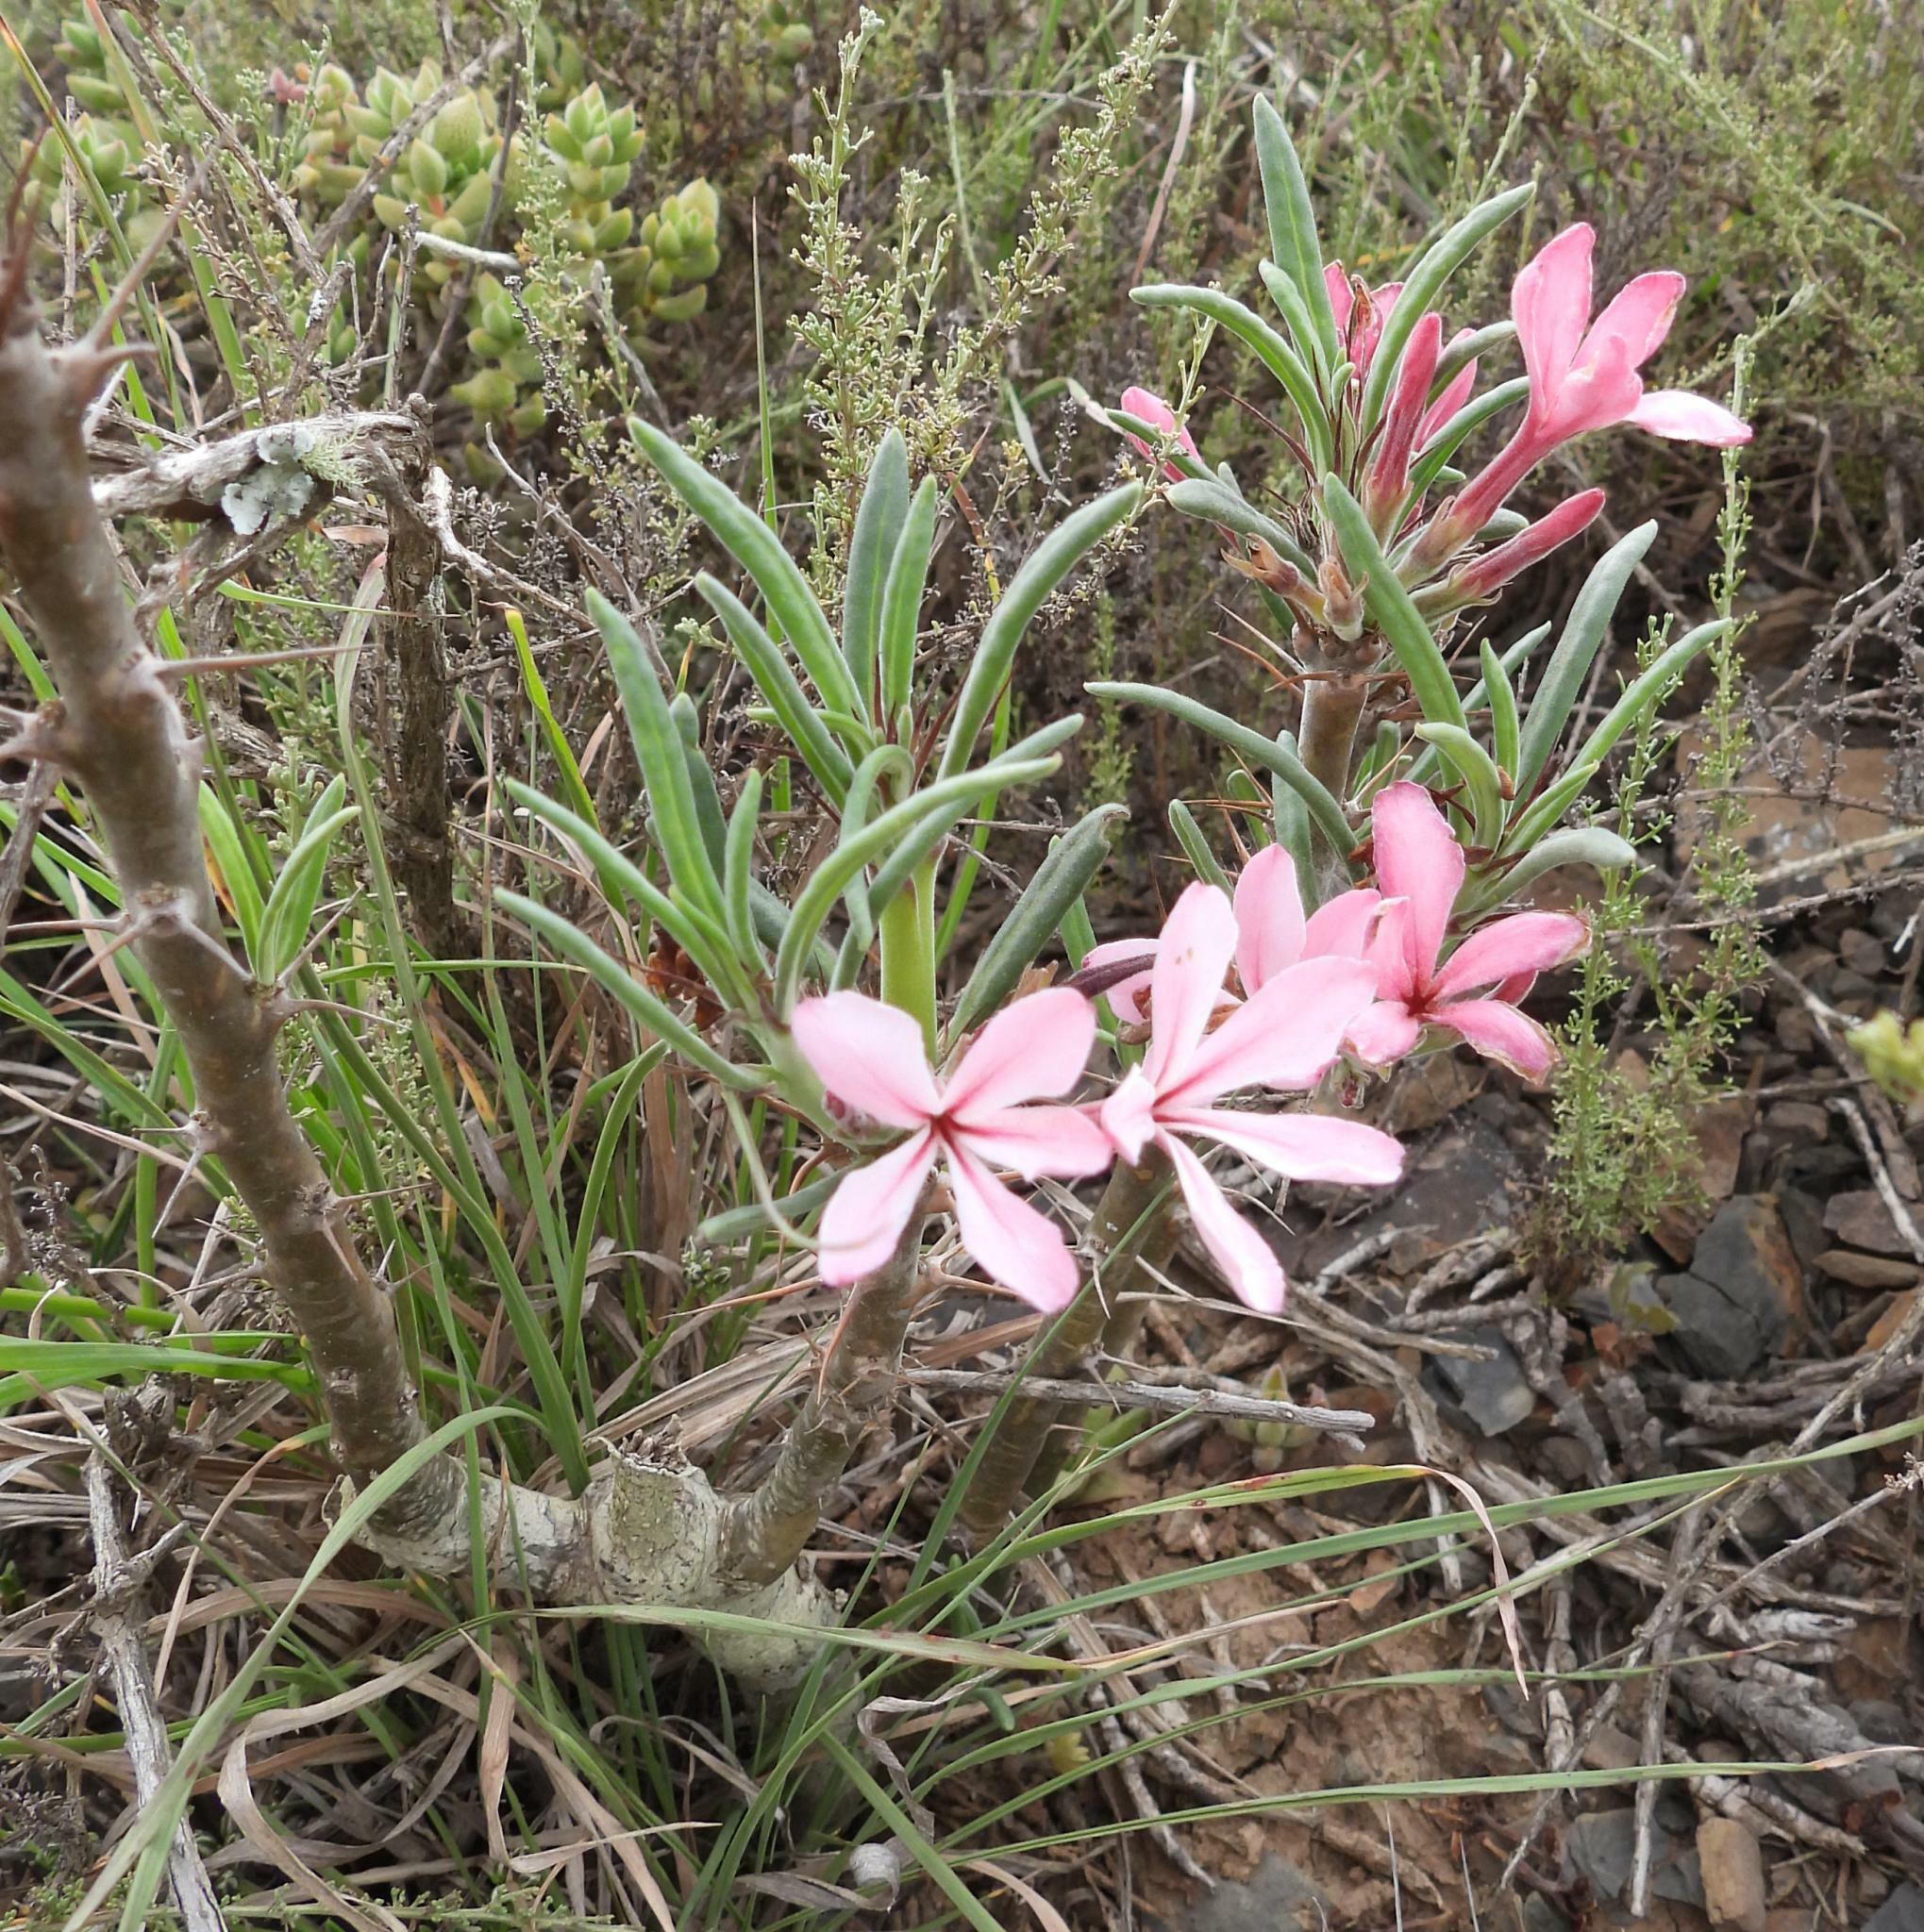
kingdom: Plantae
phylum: Tracheophyta
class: Magnoliopsida
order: Gentianales
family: Apocynaceae
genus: Pachypodium
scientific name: Pachypodium succulentum
